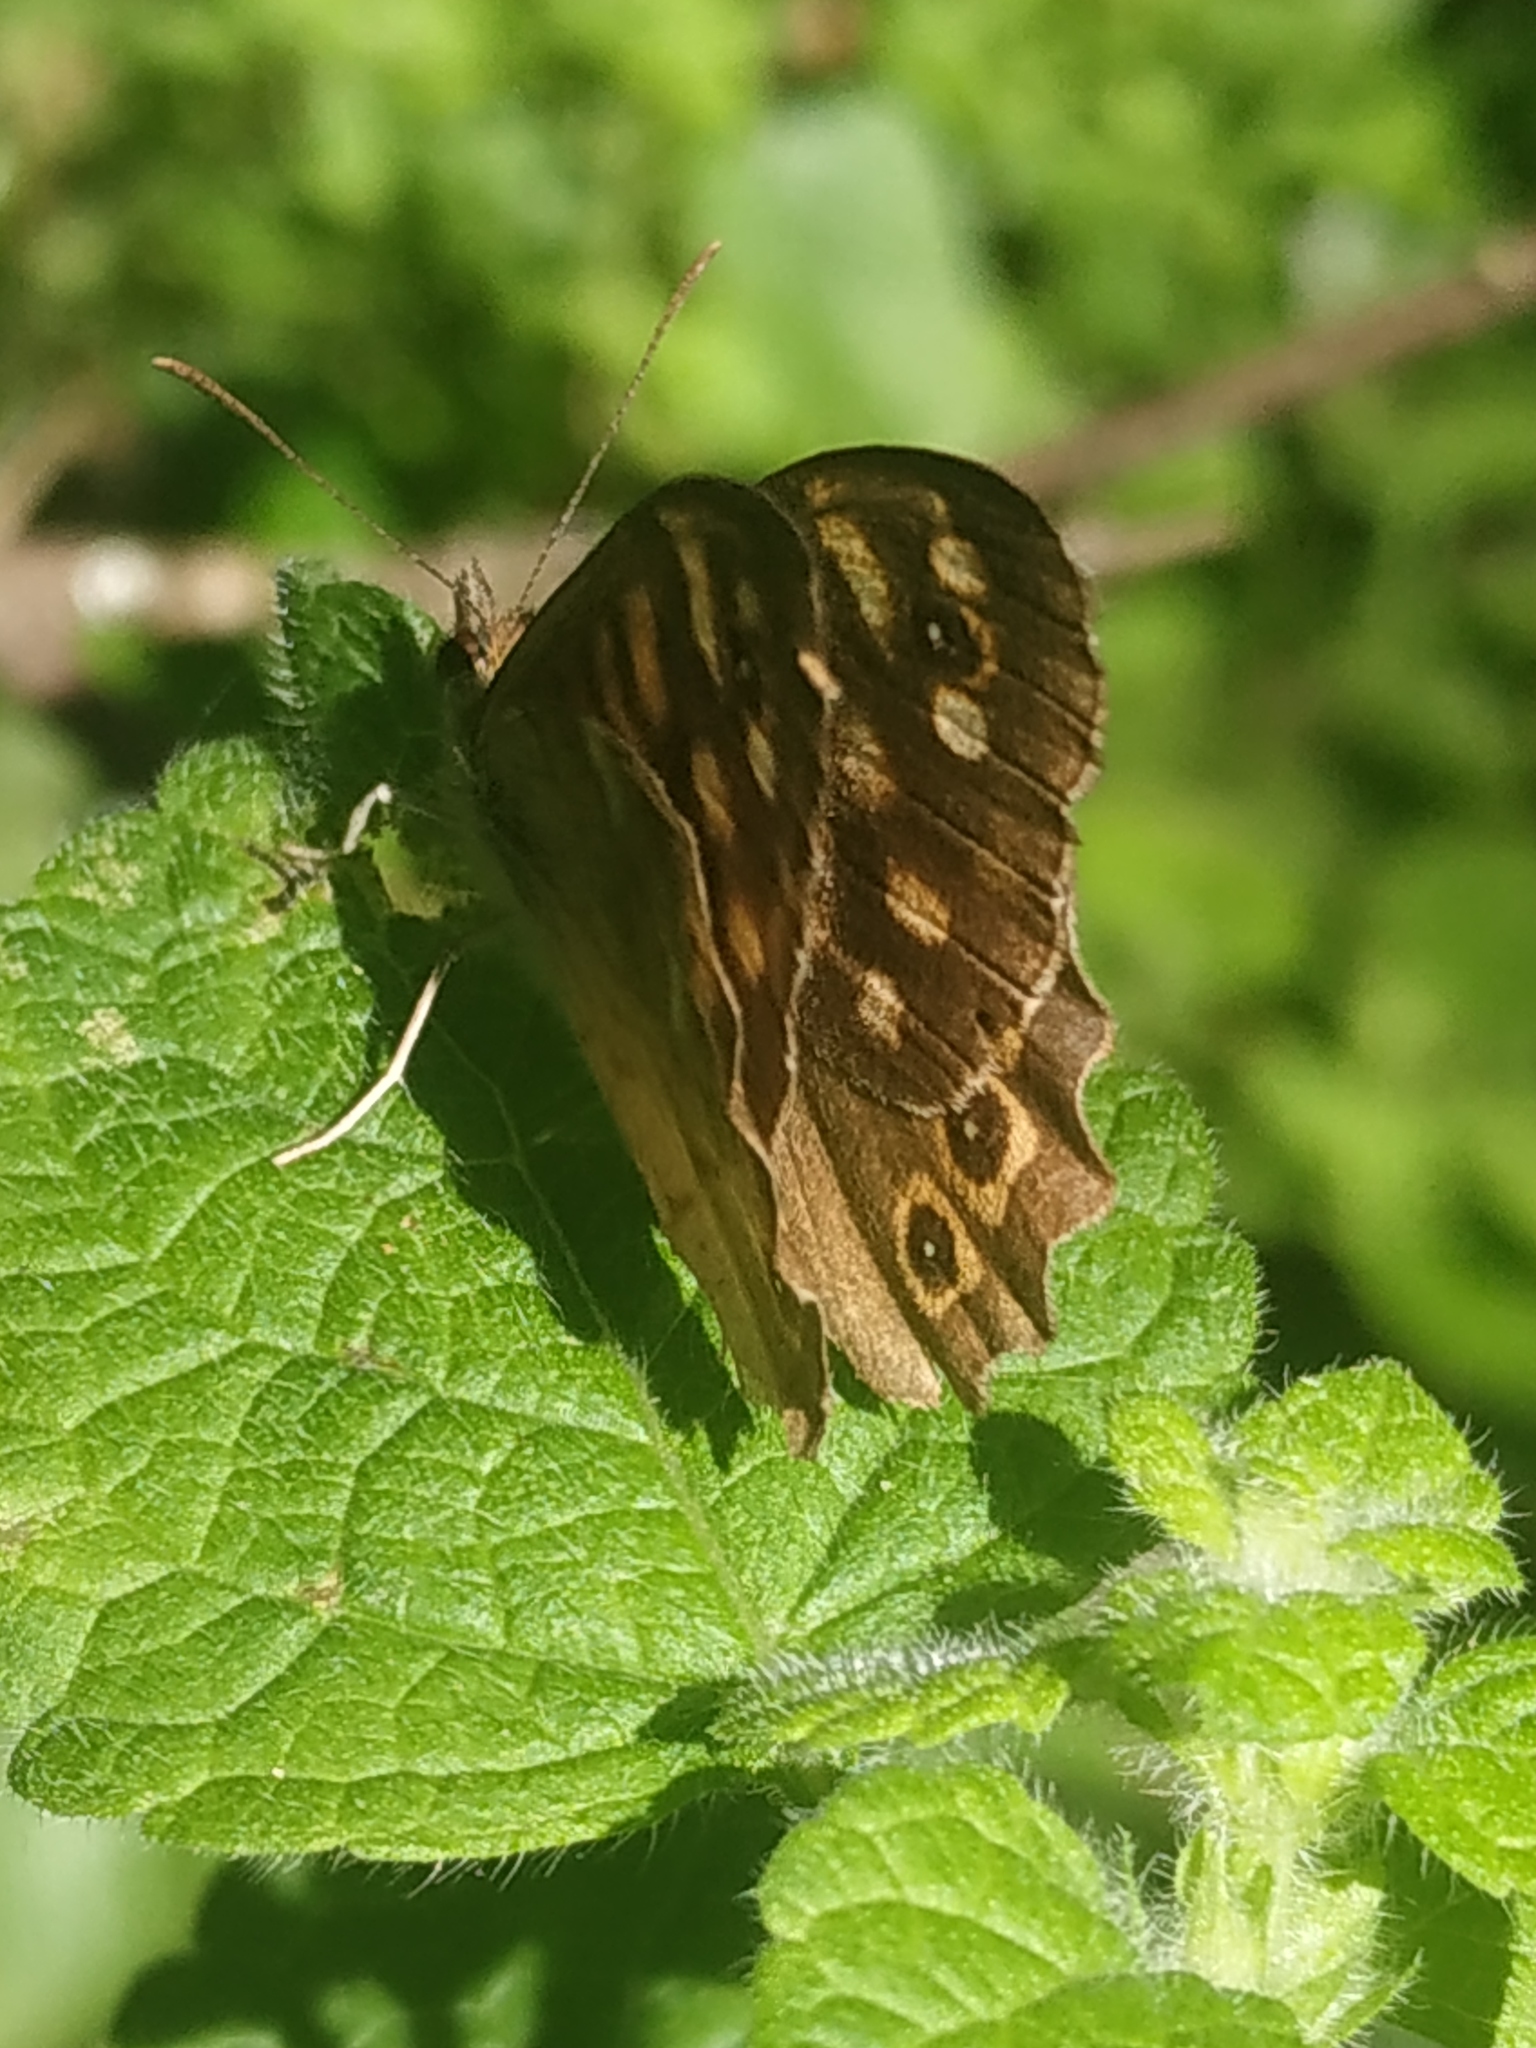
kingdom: Animalia
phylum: Arthropoda
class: Insecta
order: Lepidoptera
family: Nymphalidae
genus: Pararge
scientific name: Pararge aegeria
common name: Speckled wood
